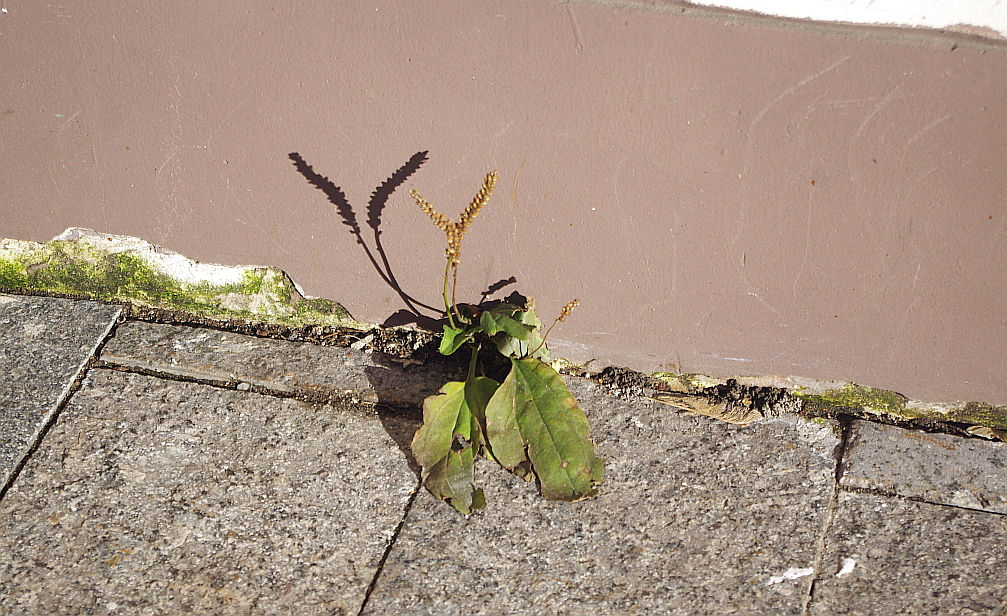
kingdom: Plantae
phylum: Tracheophyta
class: Magnoliopsida
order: Lamiales
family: Plantaginaceae
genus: Plantago
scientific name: Plantago major
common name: Common plantain
